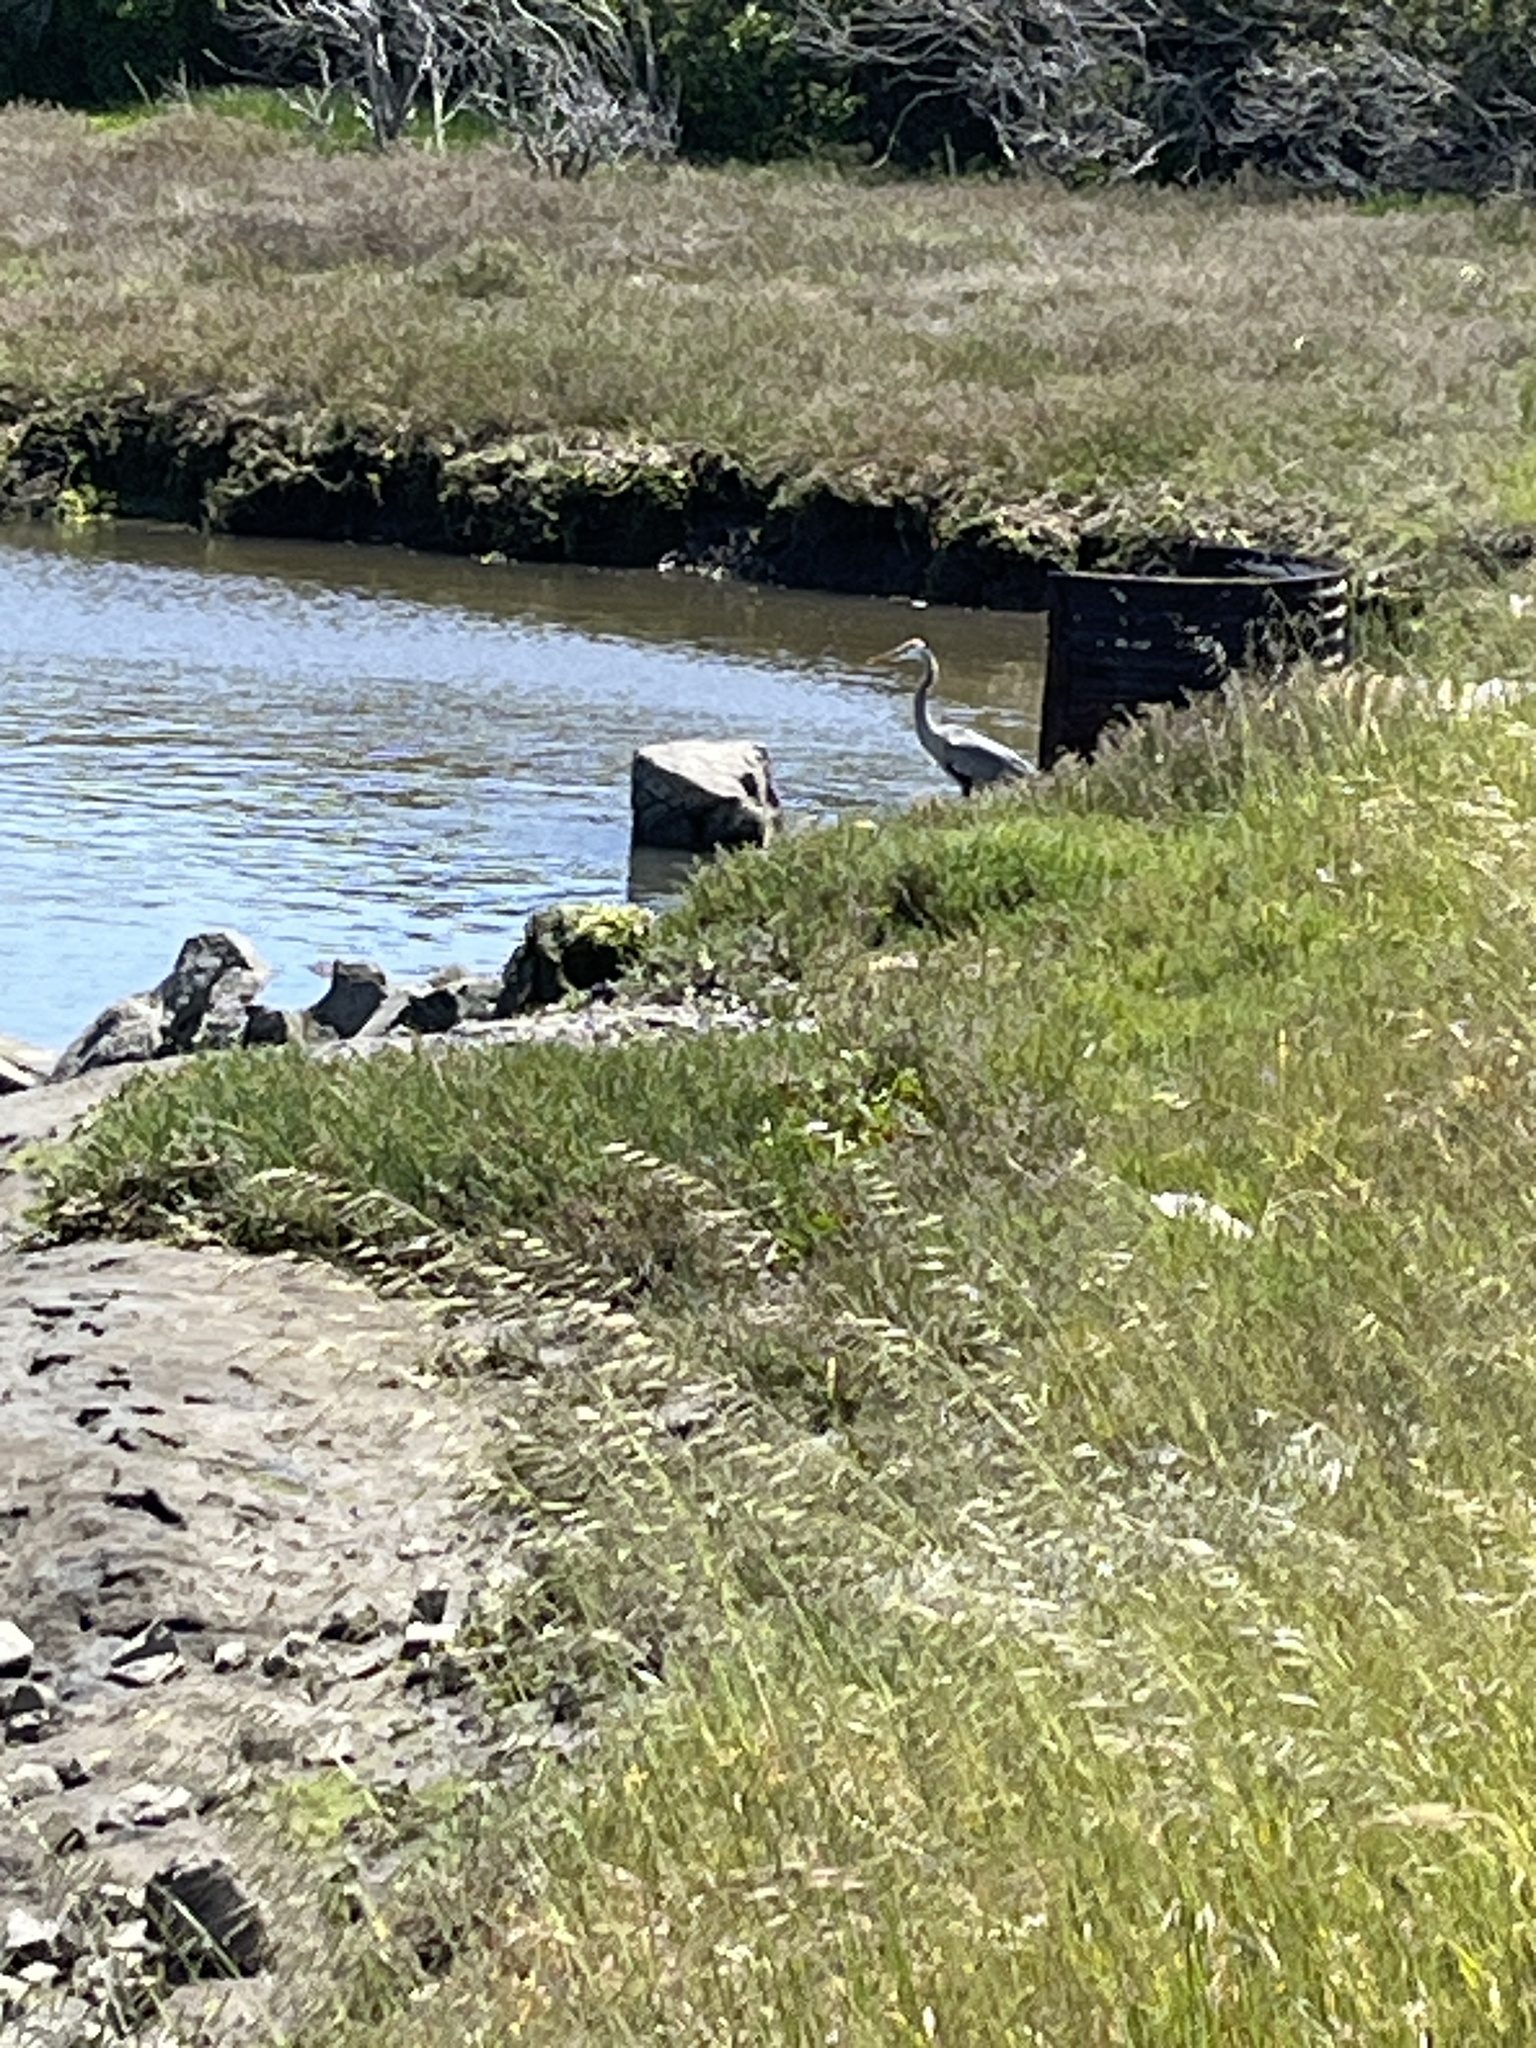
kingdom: Animalia
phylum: Chordata
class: Aves
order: Pelecaniformes
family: Ardeidae
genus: Ardea
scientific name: Ardea herodias
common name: Great blue heron
